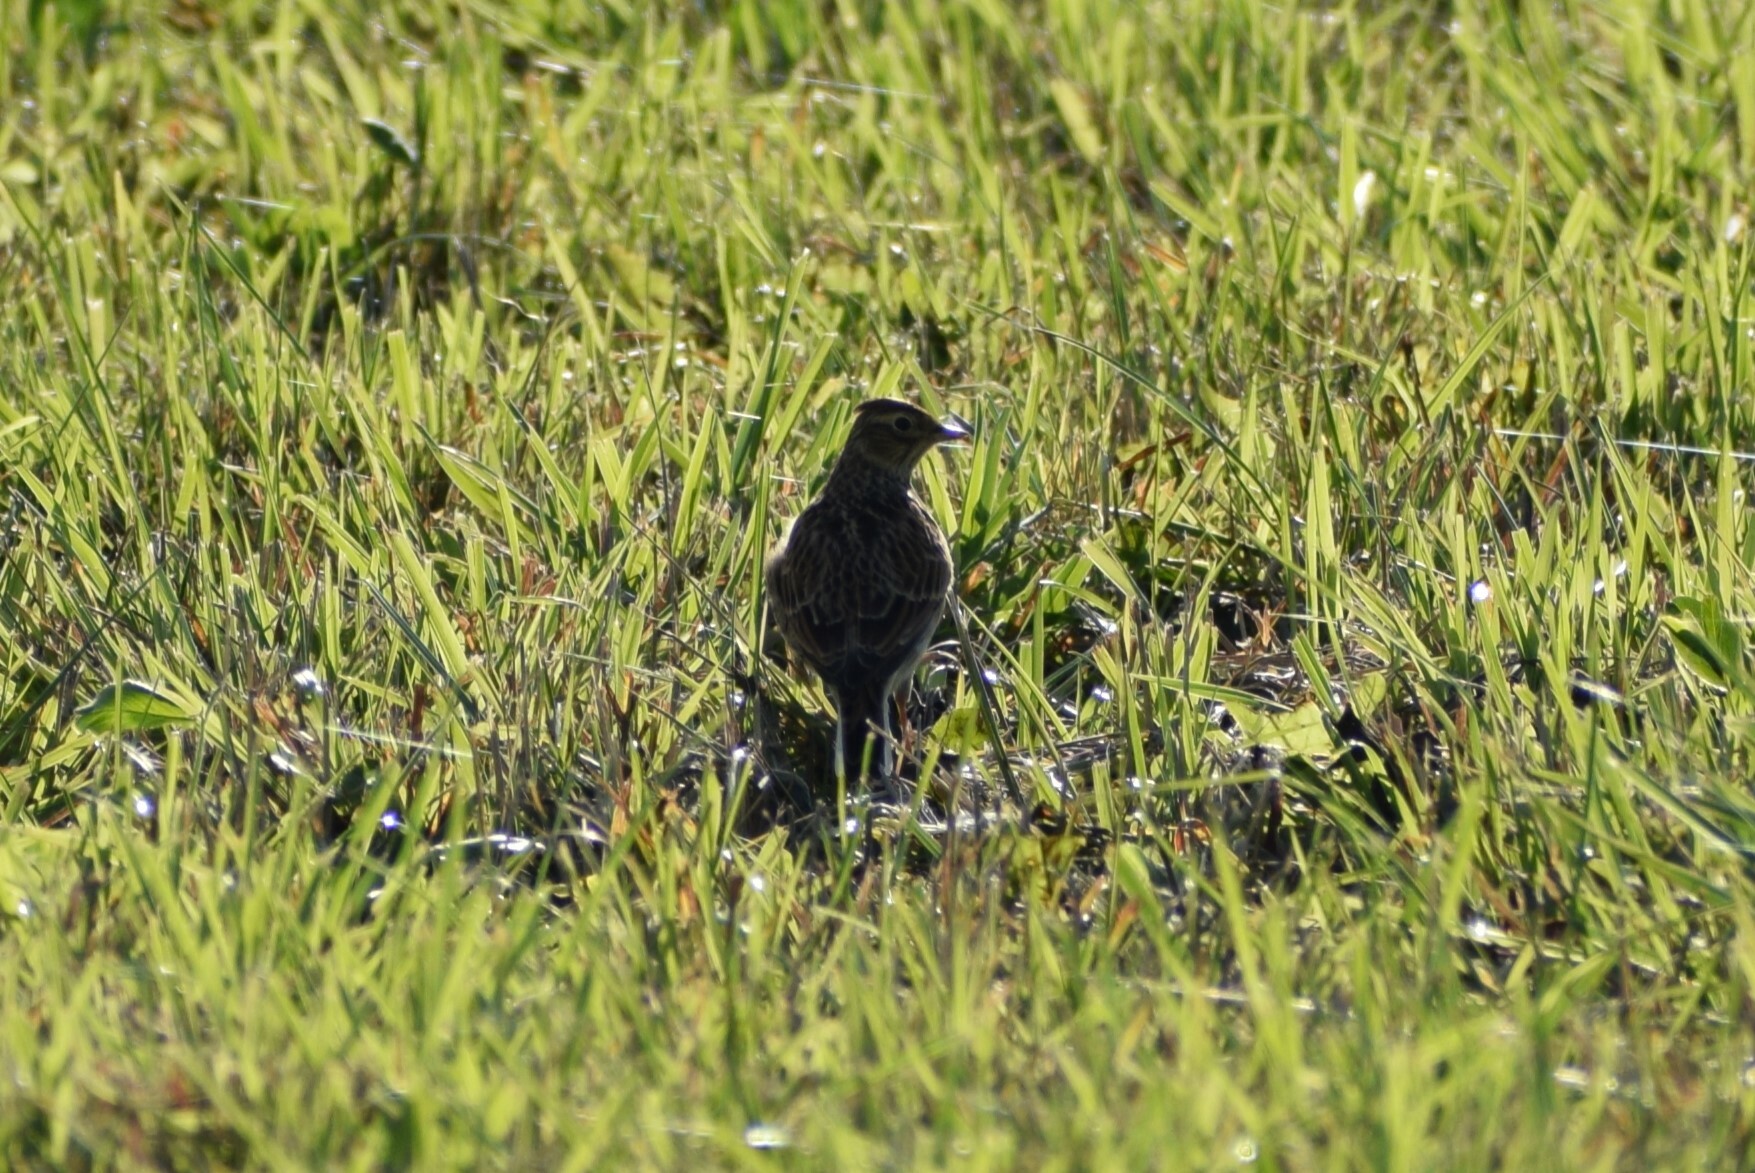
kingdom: Animalia
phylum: Chordata
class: Aves
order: Passeriformes
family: Alaudidae
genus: Alauda
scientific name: Alauda arvensis
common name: Eurasian skylark
